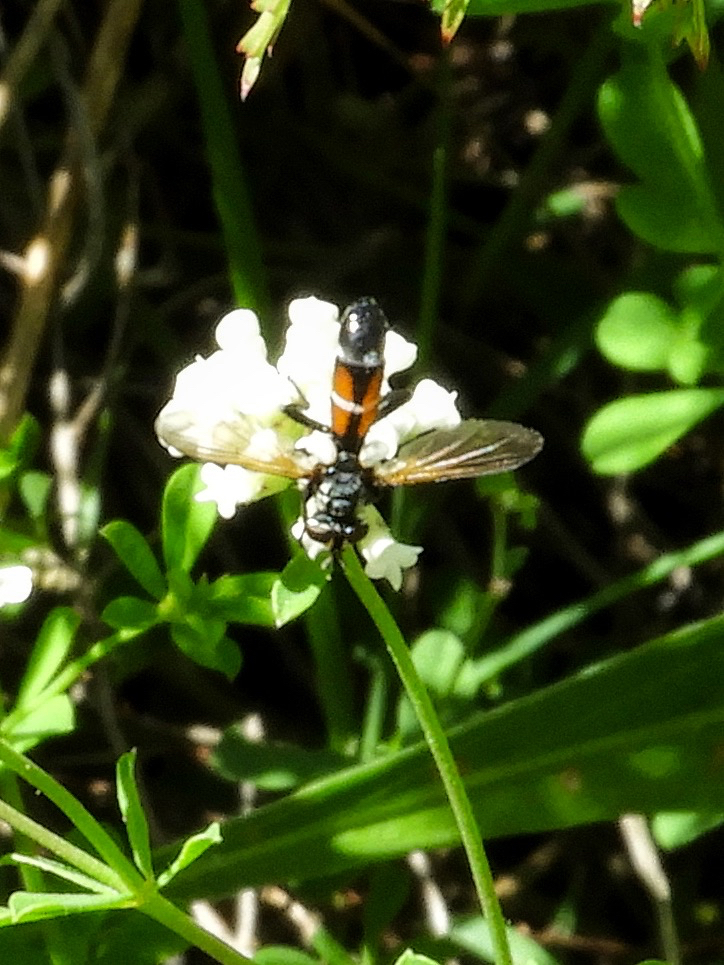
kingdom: Animalia
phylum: Arthropoda
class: Insecta
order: Diptera
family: Tachinidae
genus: Cylindromyia
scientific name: Cylindromyia
